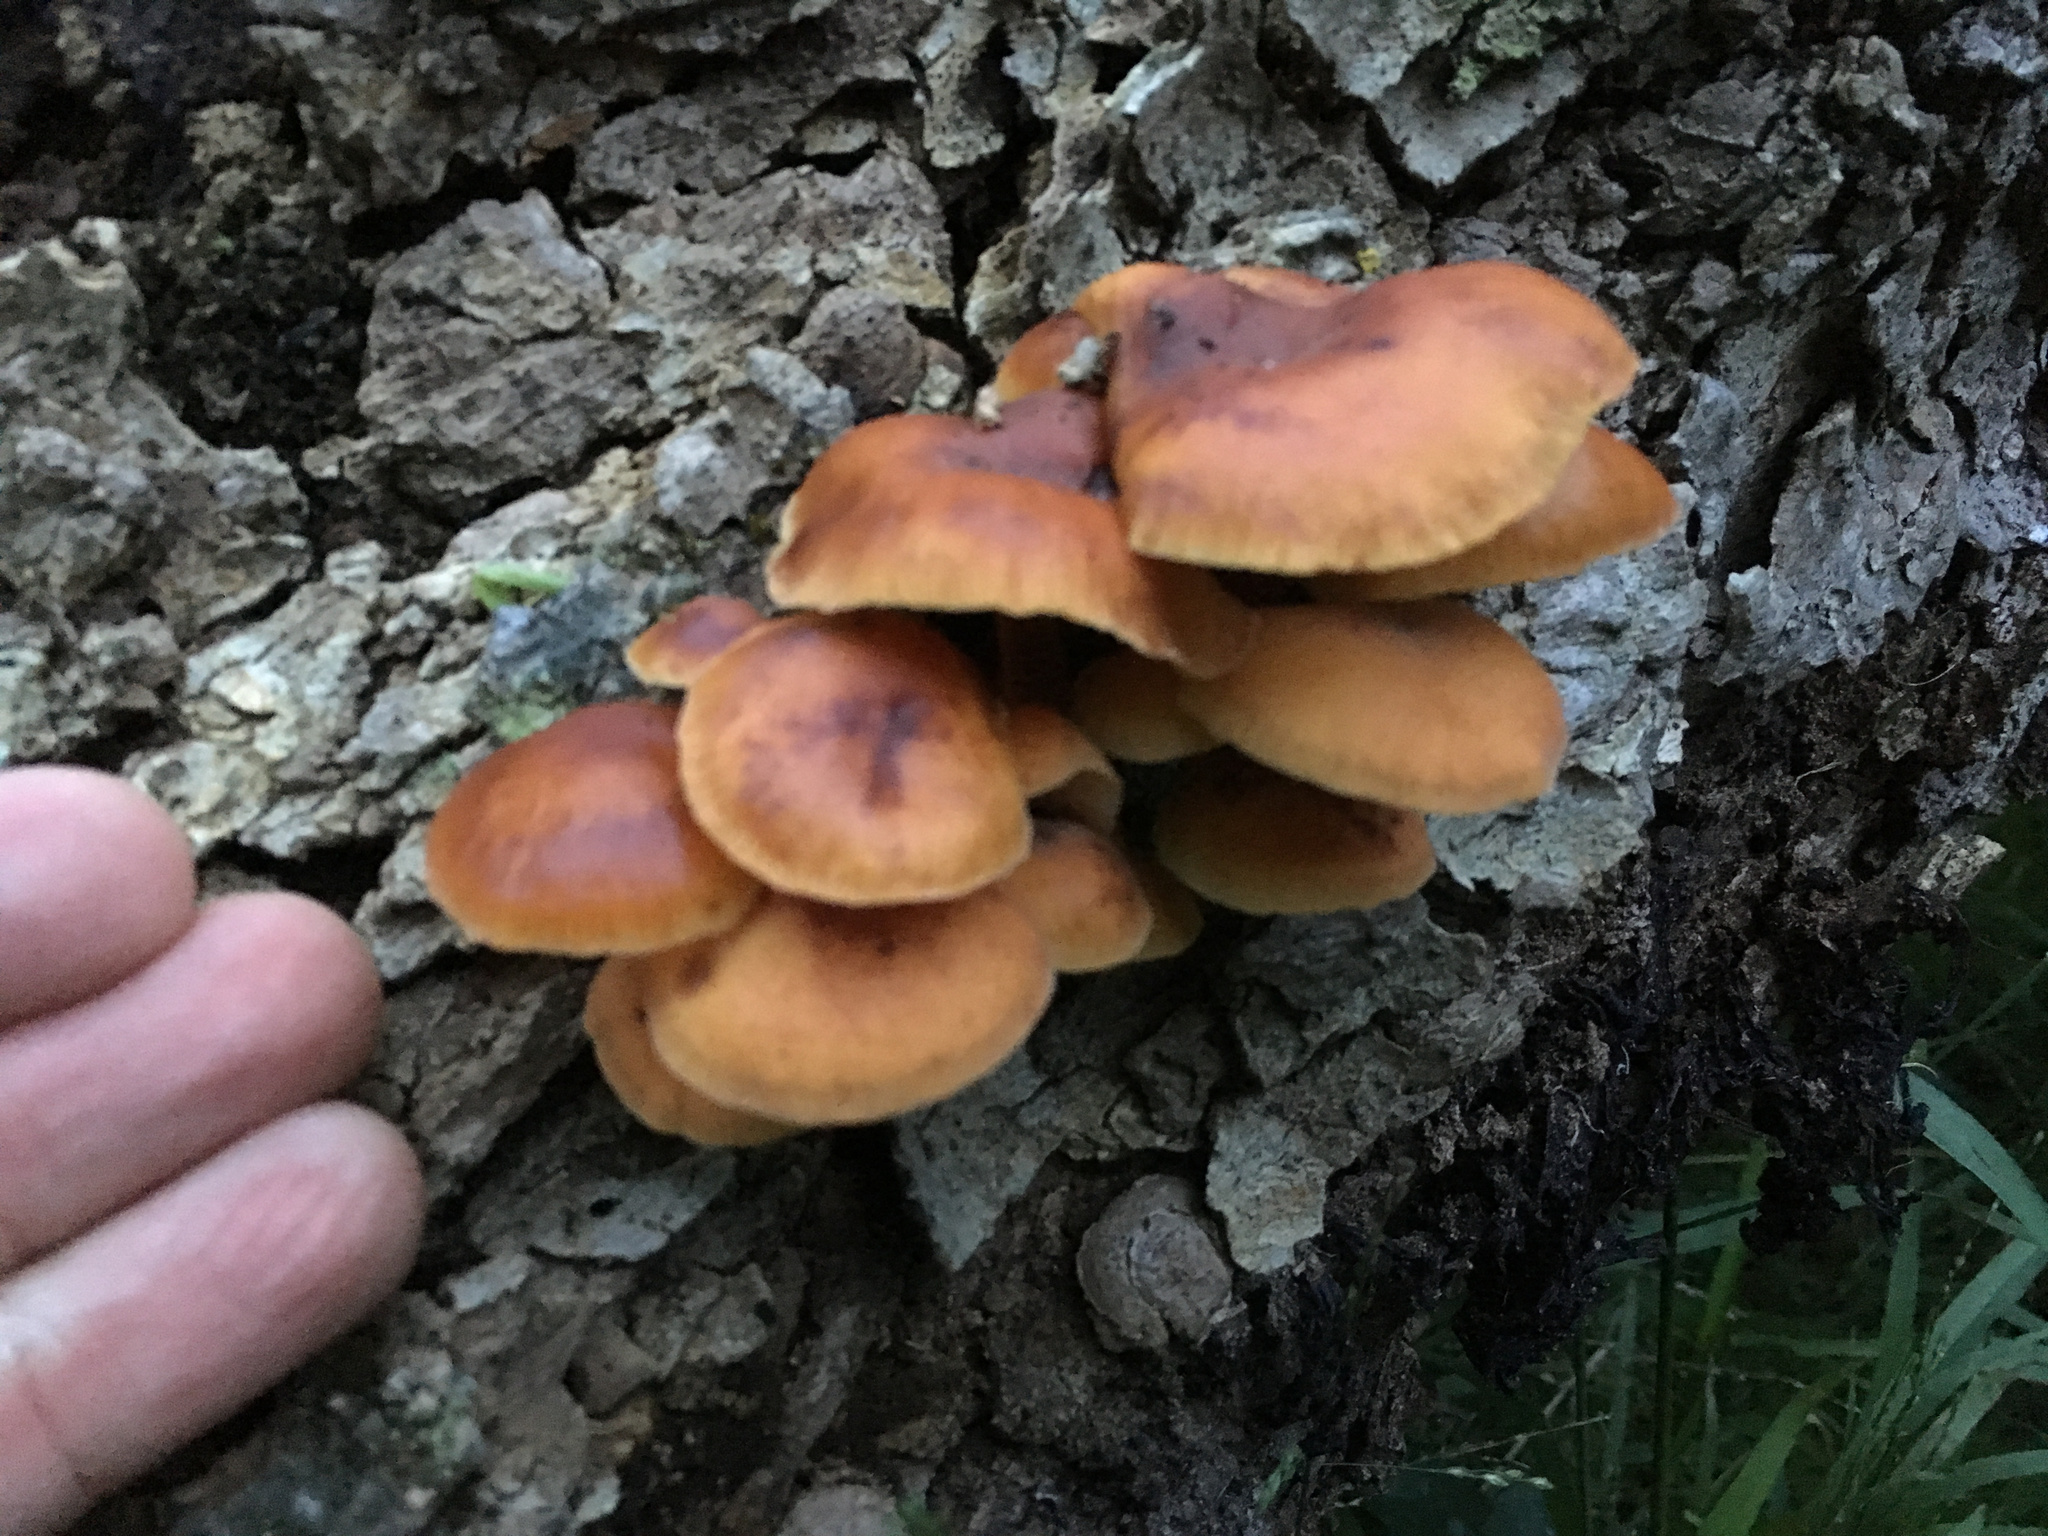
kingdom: Fungi
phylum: Basidiomycota
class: Agaricomycetes
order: Agaricales
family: Physalacriaceae
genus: Flammulina
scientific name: Flammulina velutipes
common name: Velvet shank
